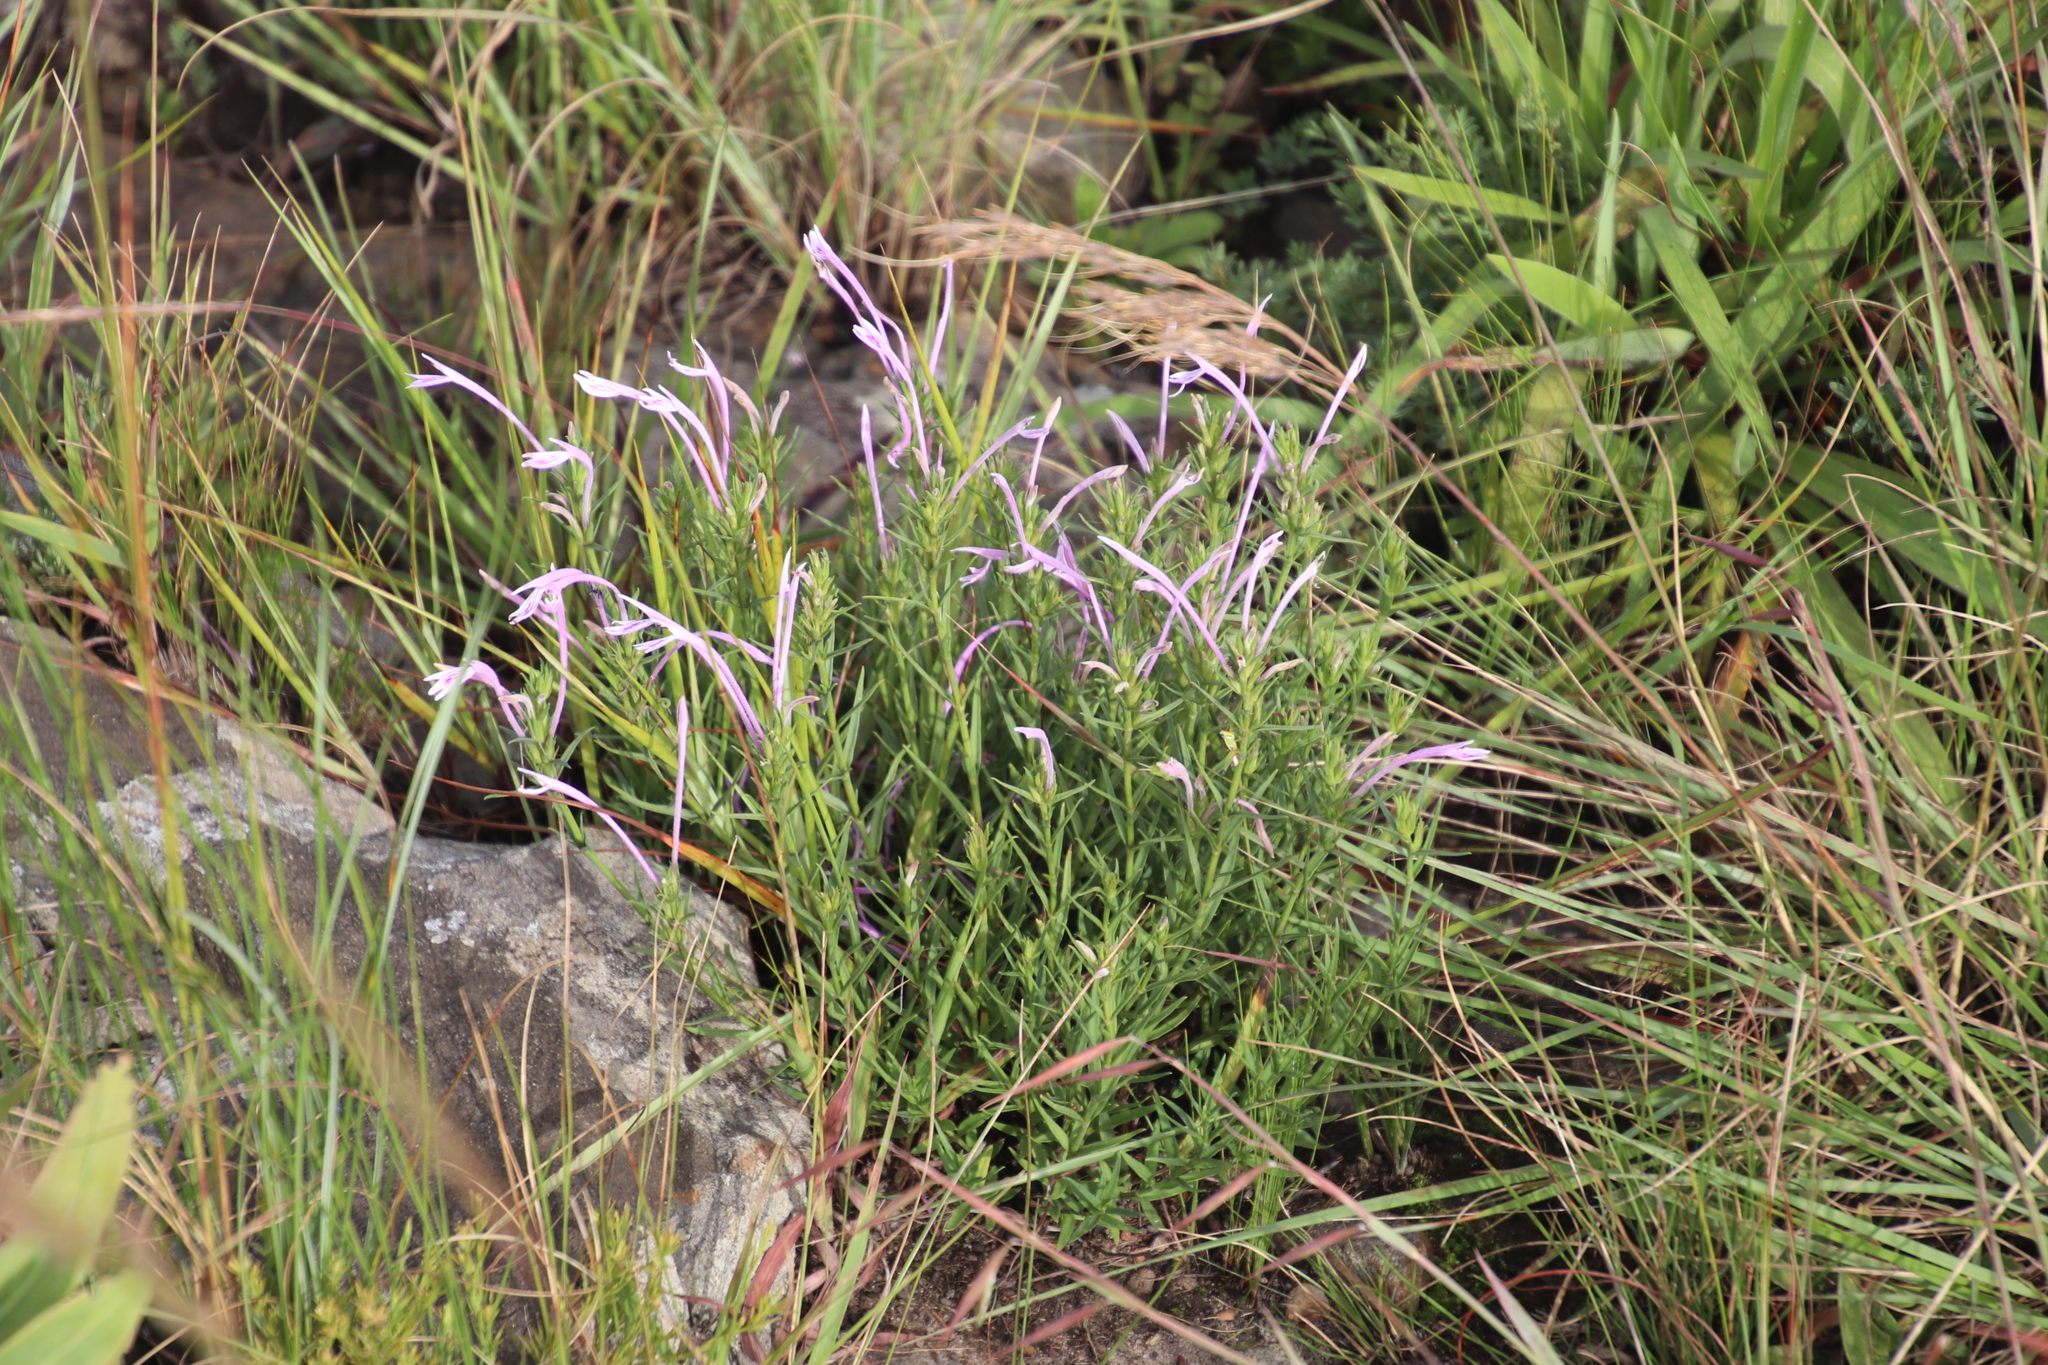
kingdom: Plantae
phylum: Tracheophyta
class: Magnoliopsida
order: Lamiales
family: Acanthaceae
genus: Justicia
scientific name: Justicia linifolia
